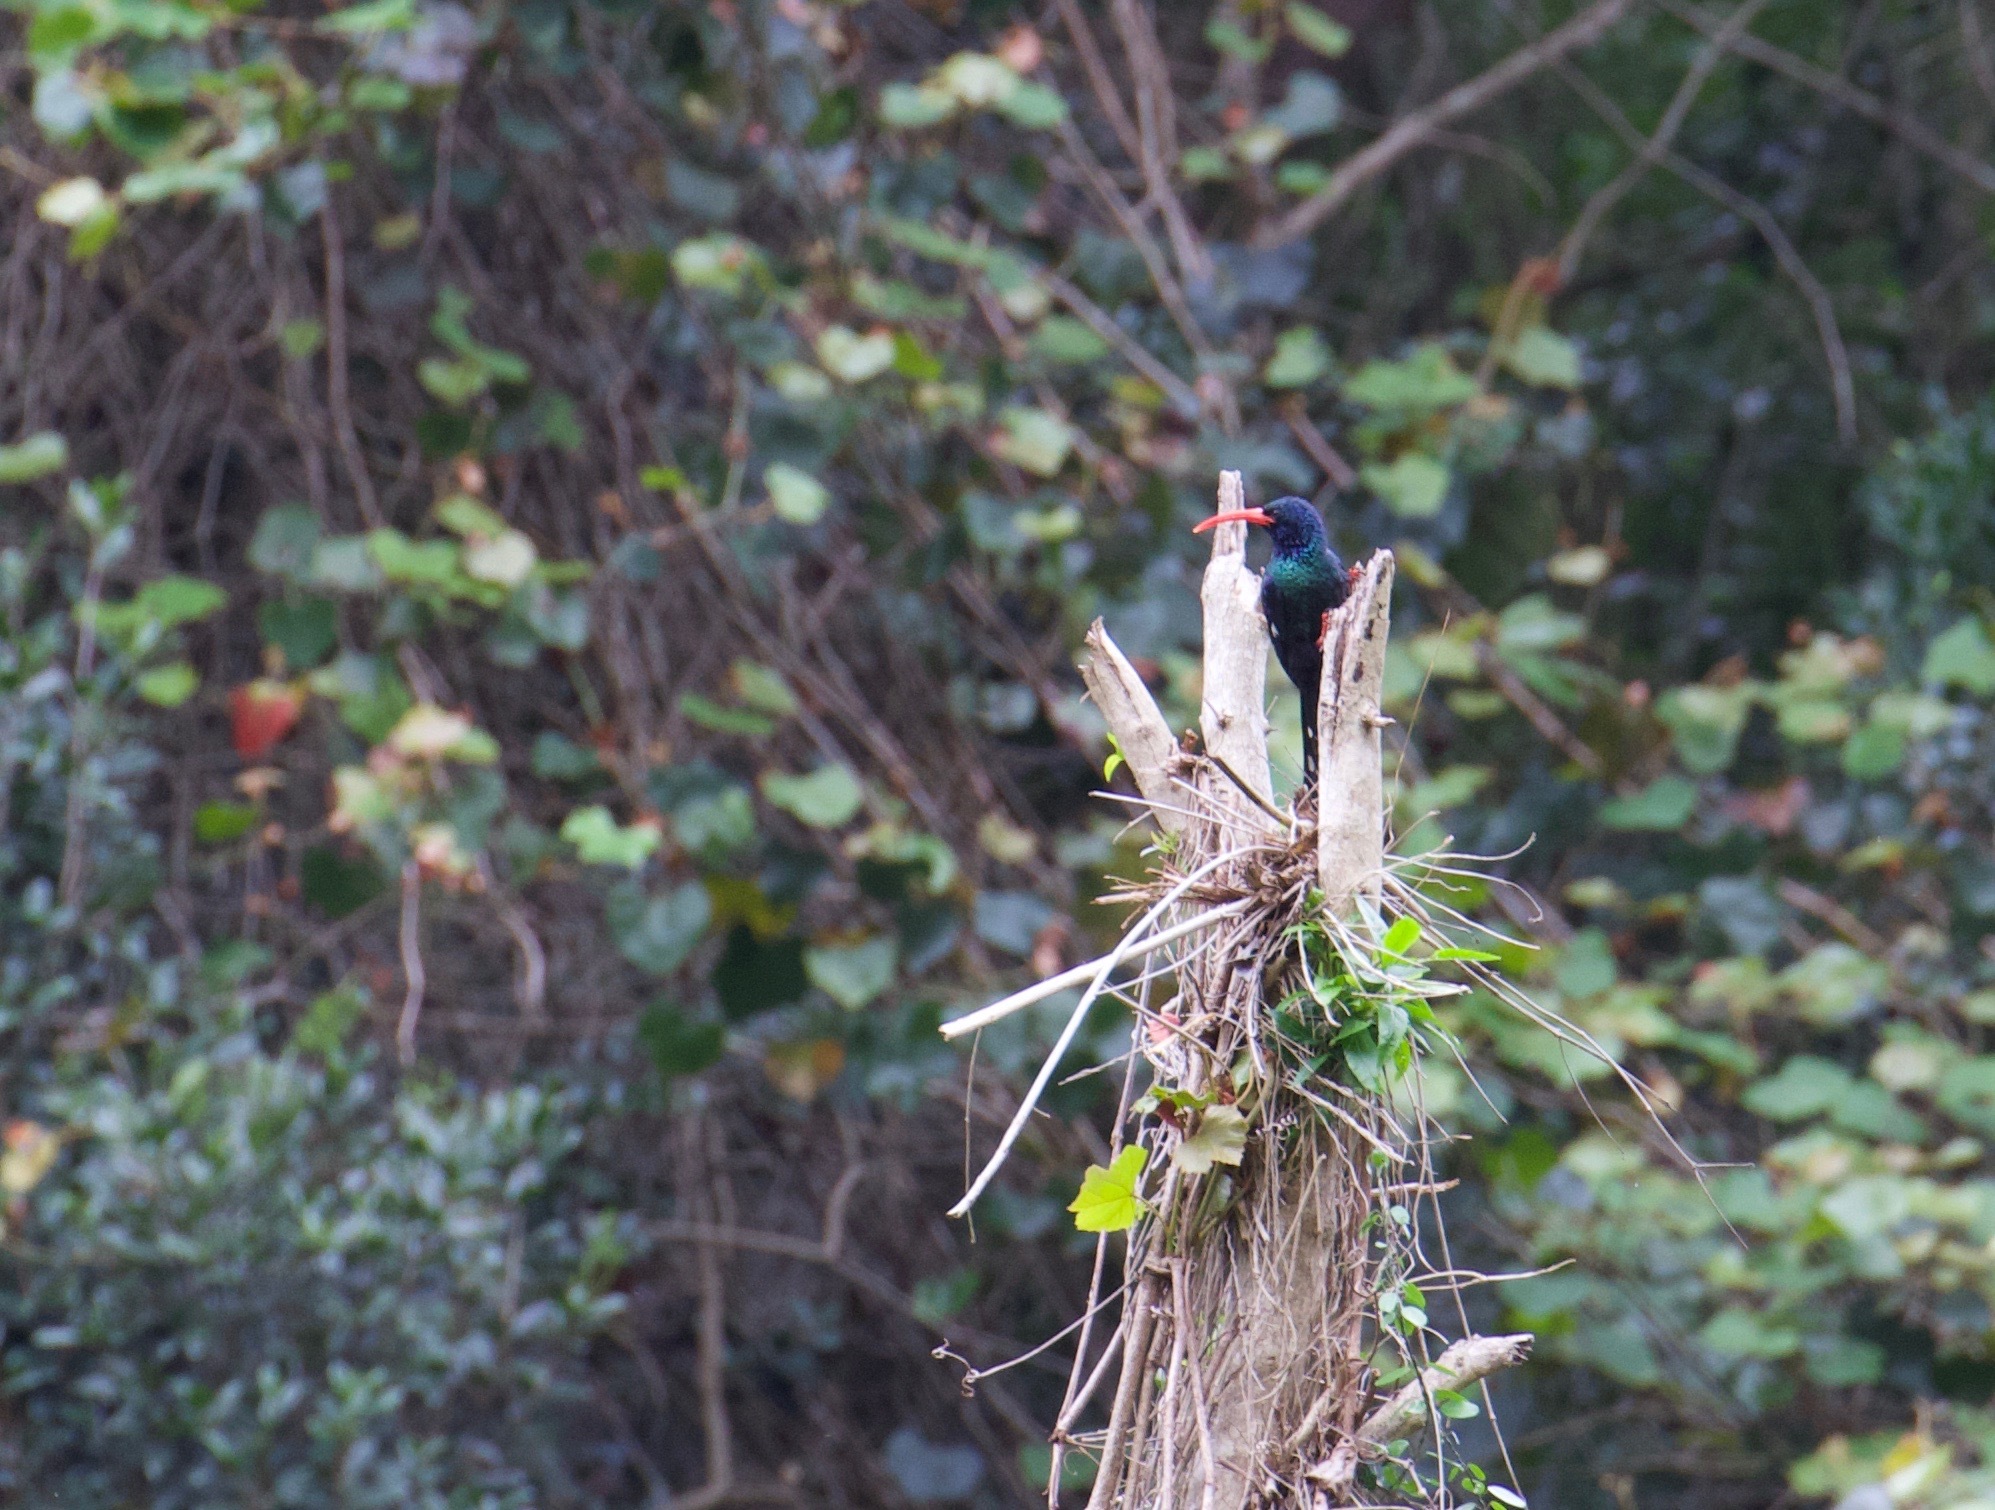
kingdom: Animalia
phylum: Chordata
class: Aves
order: Bucerotiformes
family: Phoeniculidae
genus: Phoeniculus
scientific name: Phoeniculus purpureus
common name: Green woodhoopoe
